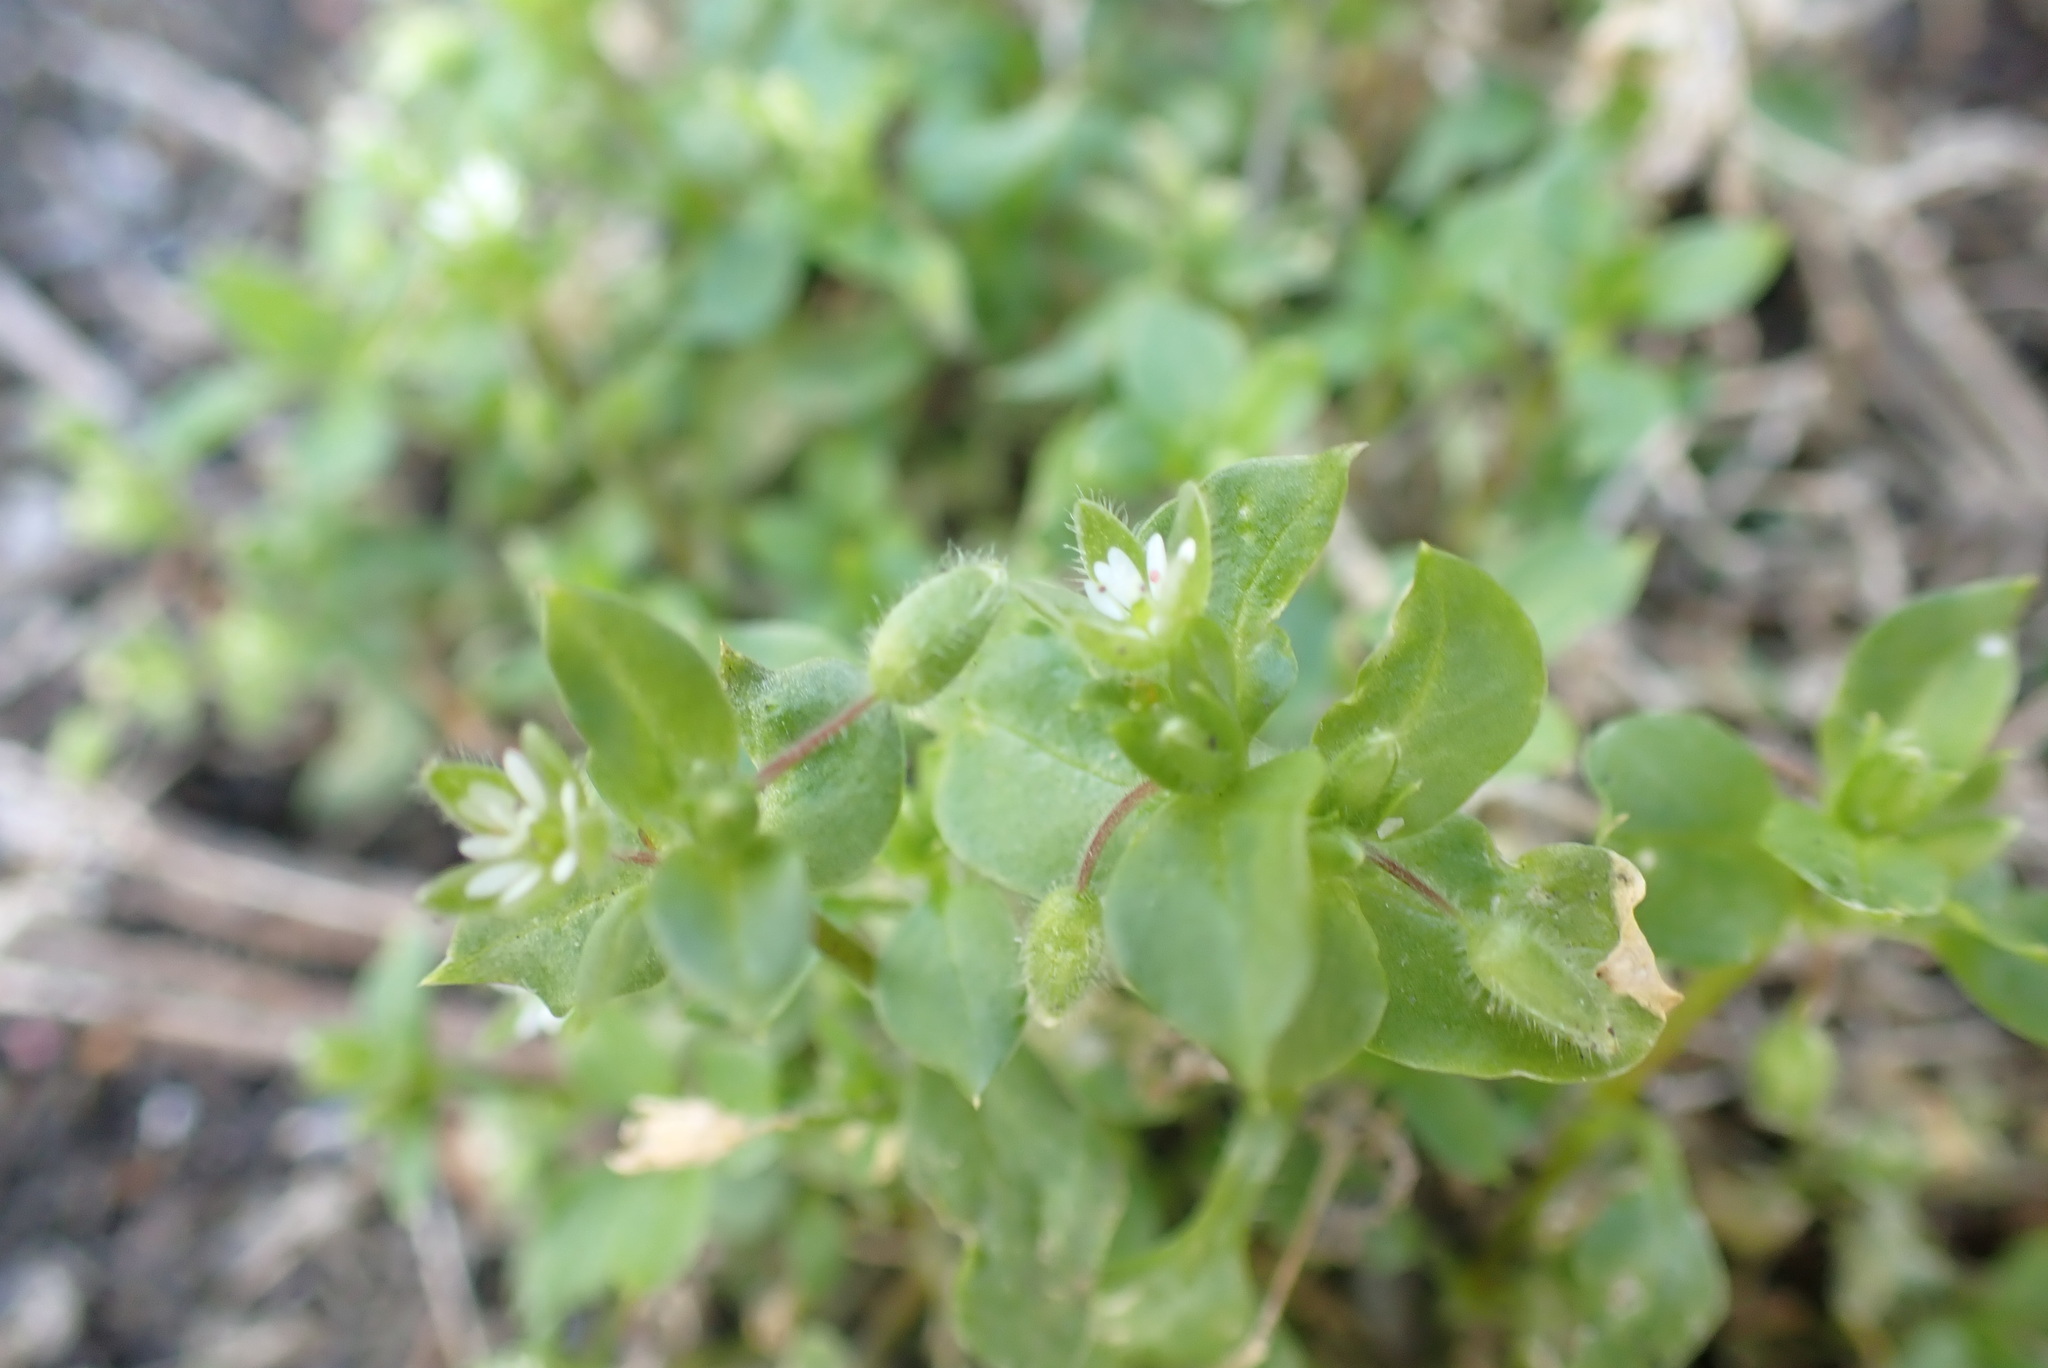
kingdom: Plantae
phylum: Tracheophyta
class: Magnoliopsida
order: Caryophyllales
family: Caryophyllaceae
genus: Stellaria
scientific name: Stellaria media
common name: Common chickweed
